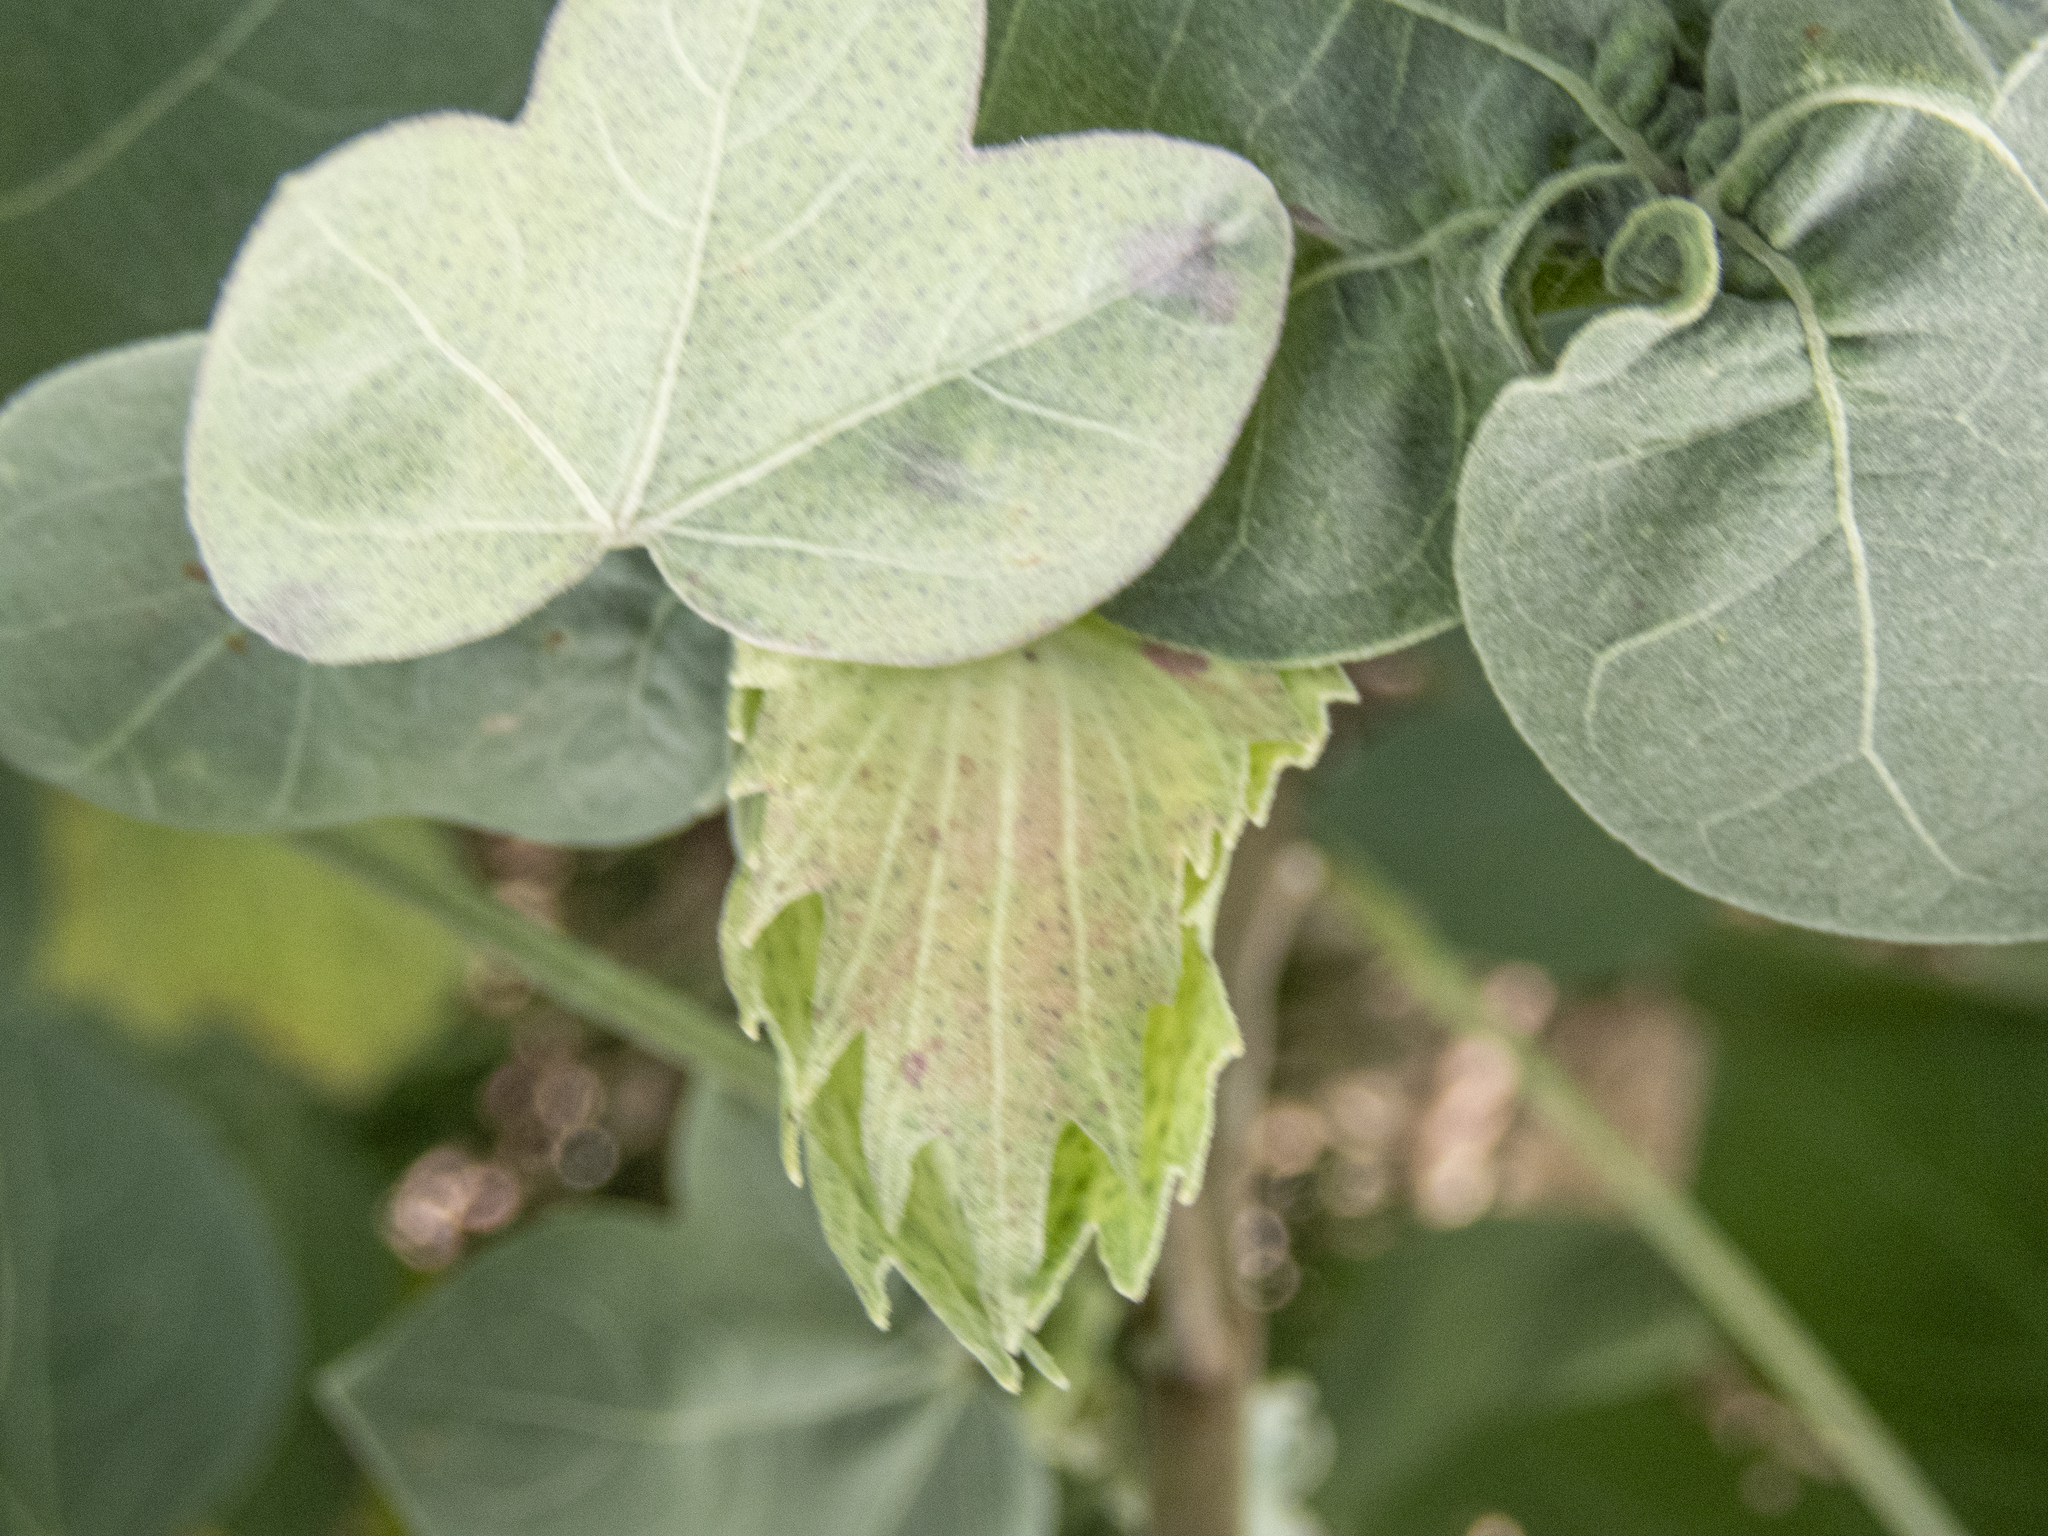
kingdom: Plantae
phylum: Tracheophyta
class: Magnoliopsida
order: Malvales
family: Malvaceae
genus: Gossypium
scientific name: Gossypium tomentosum
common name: Hawaiian cotton
